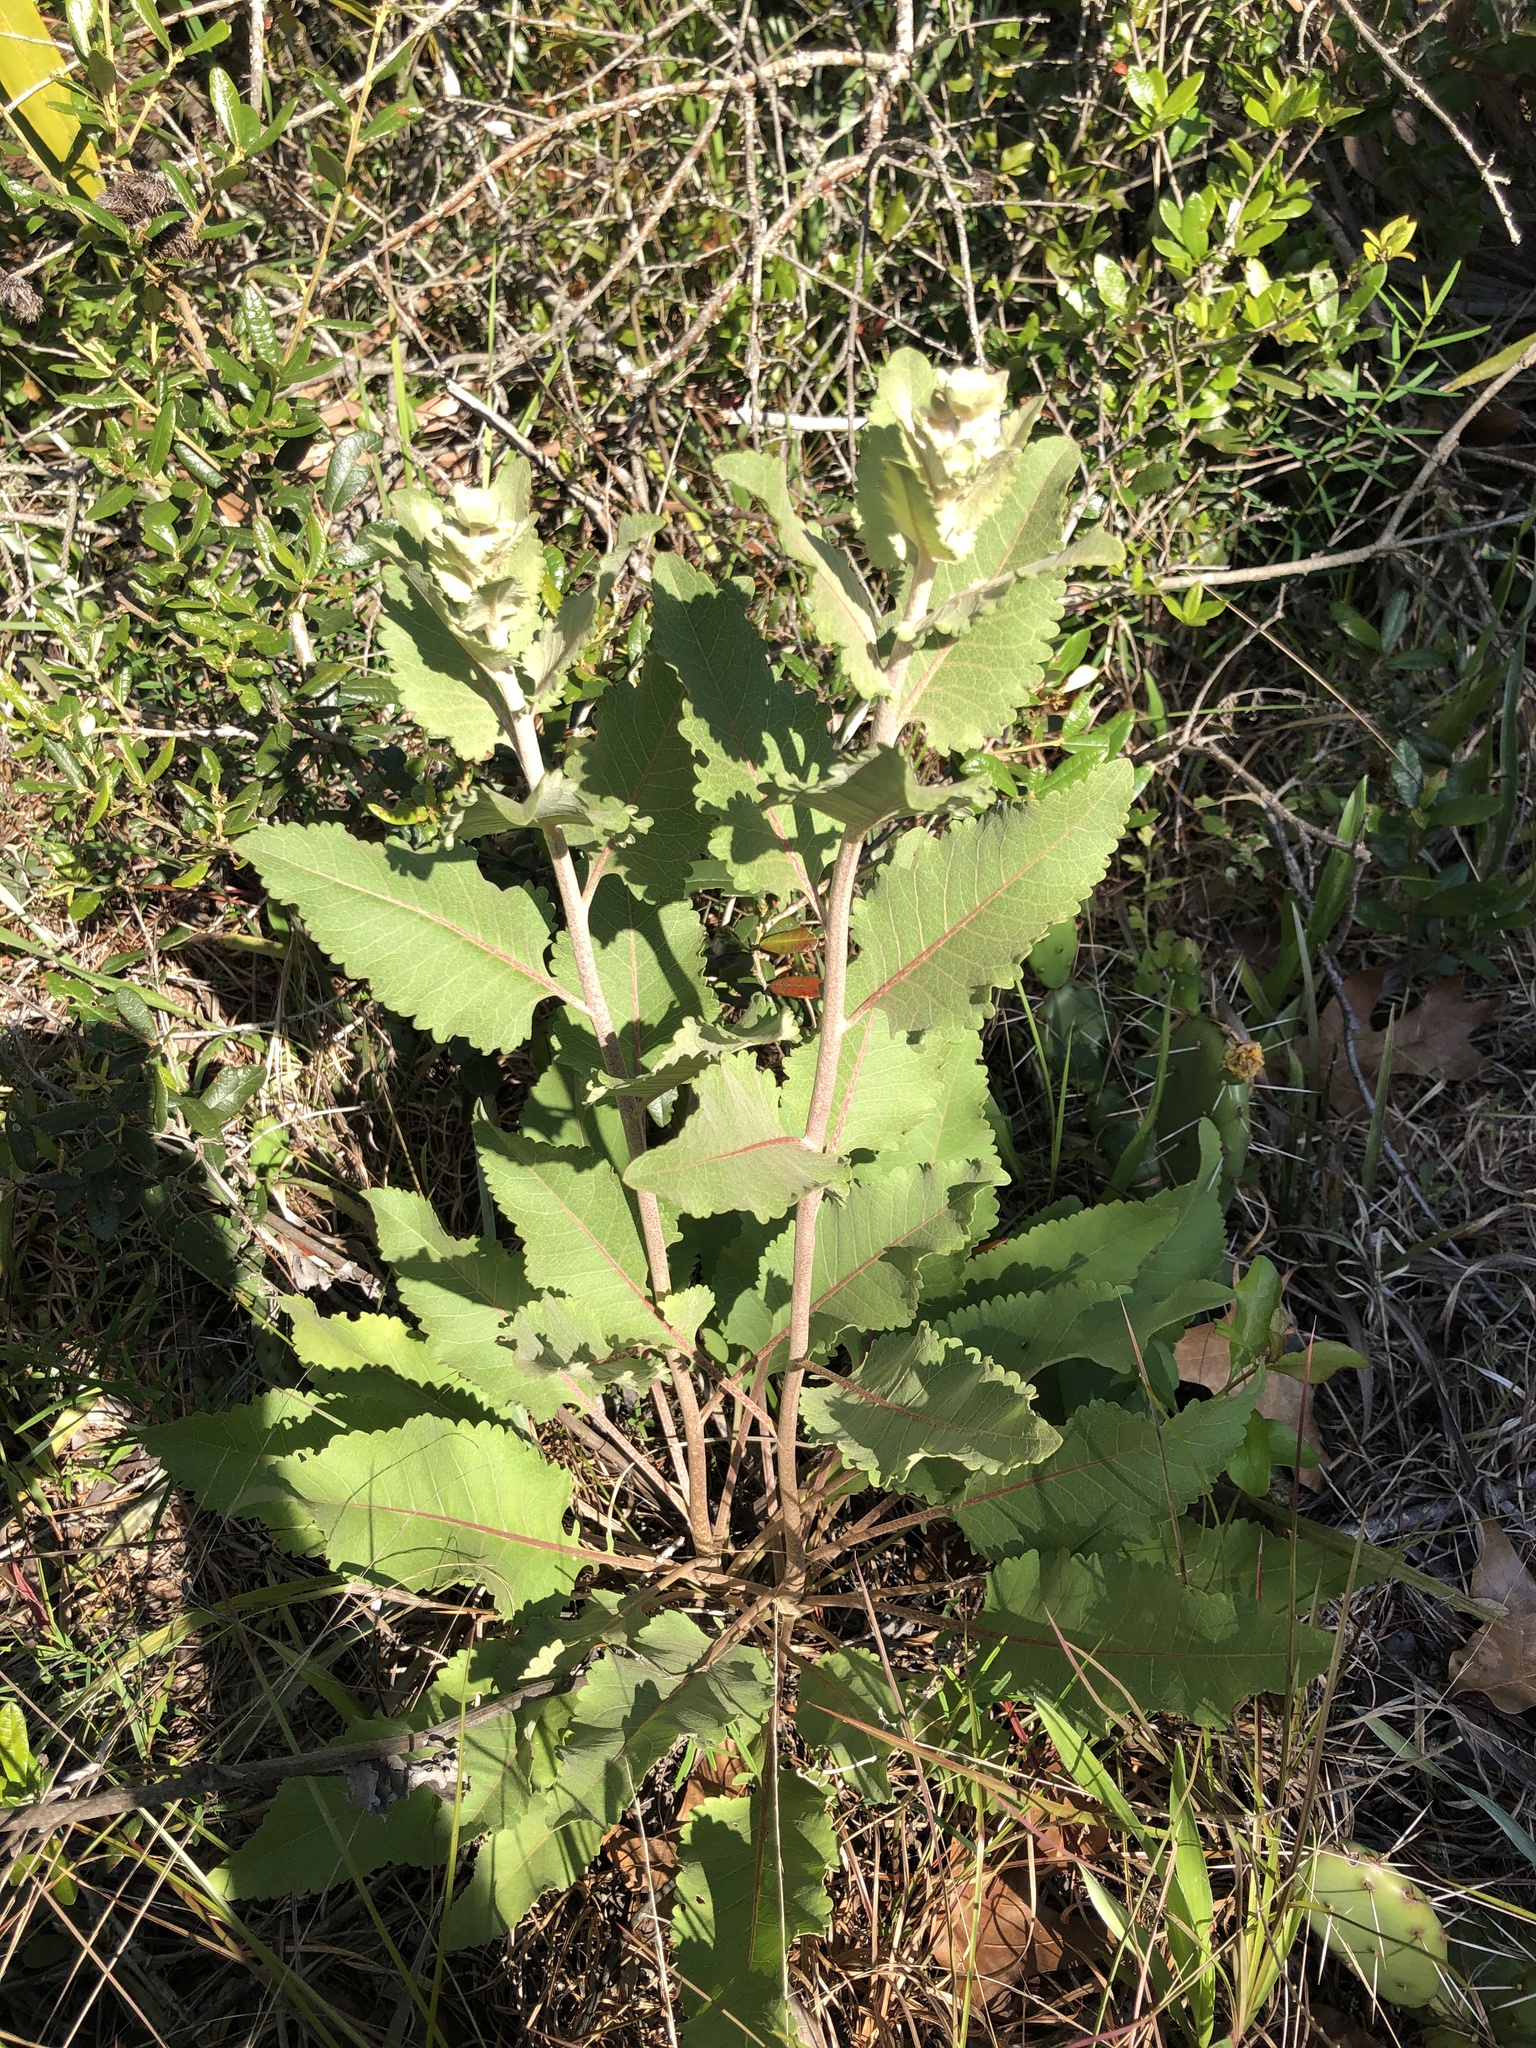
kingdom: Plantae
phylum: Tracheophyta
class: Magnoliopsida
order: Asterales
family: Asteraceae
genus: Berlandiera
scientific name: Berlandiera pumila
